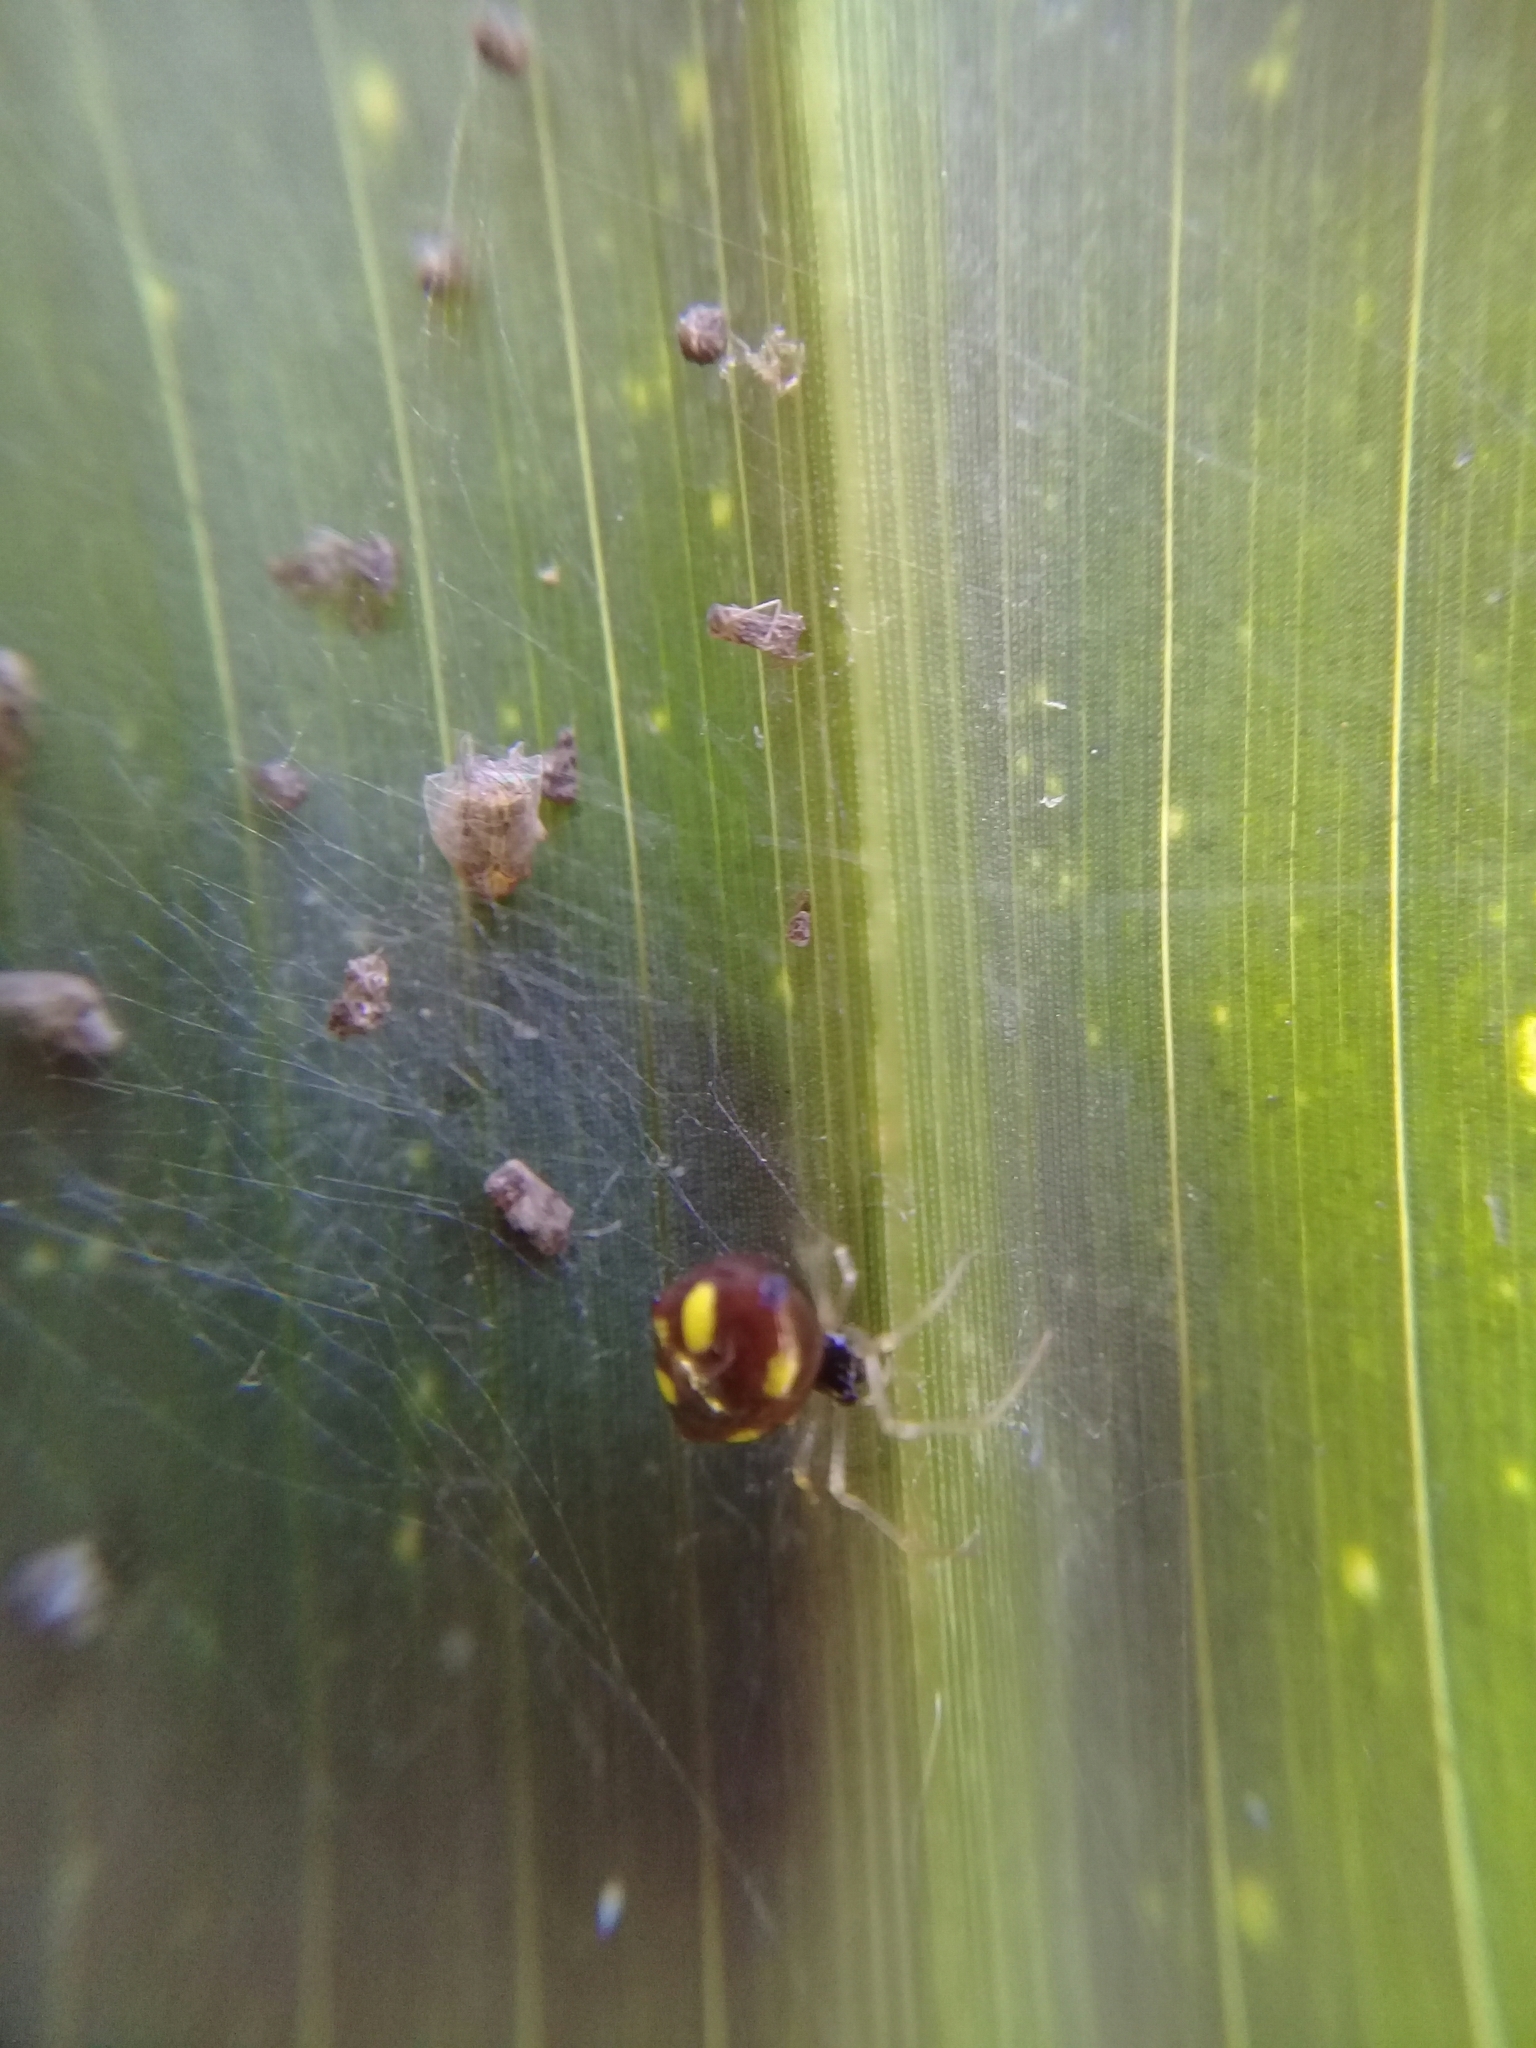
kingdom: Animalia
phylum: Arthropoda
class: Arachnida
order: Araneae
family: Theridiidae
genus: Theridula
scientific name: Theridula gonygaster
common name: Cobweb spiders
